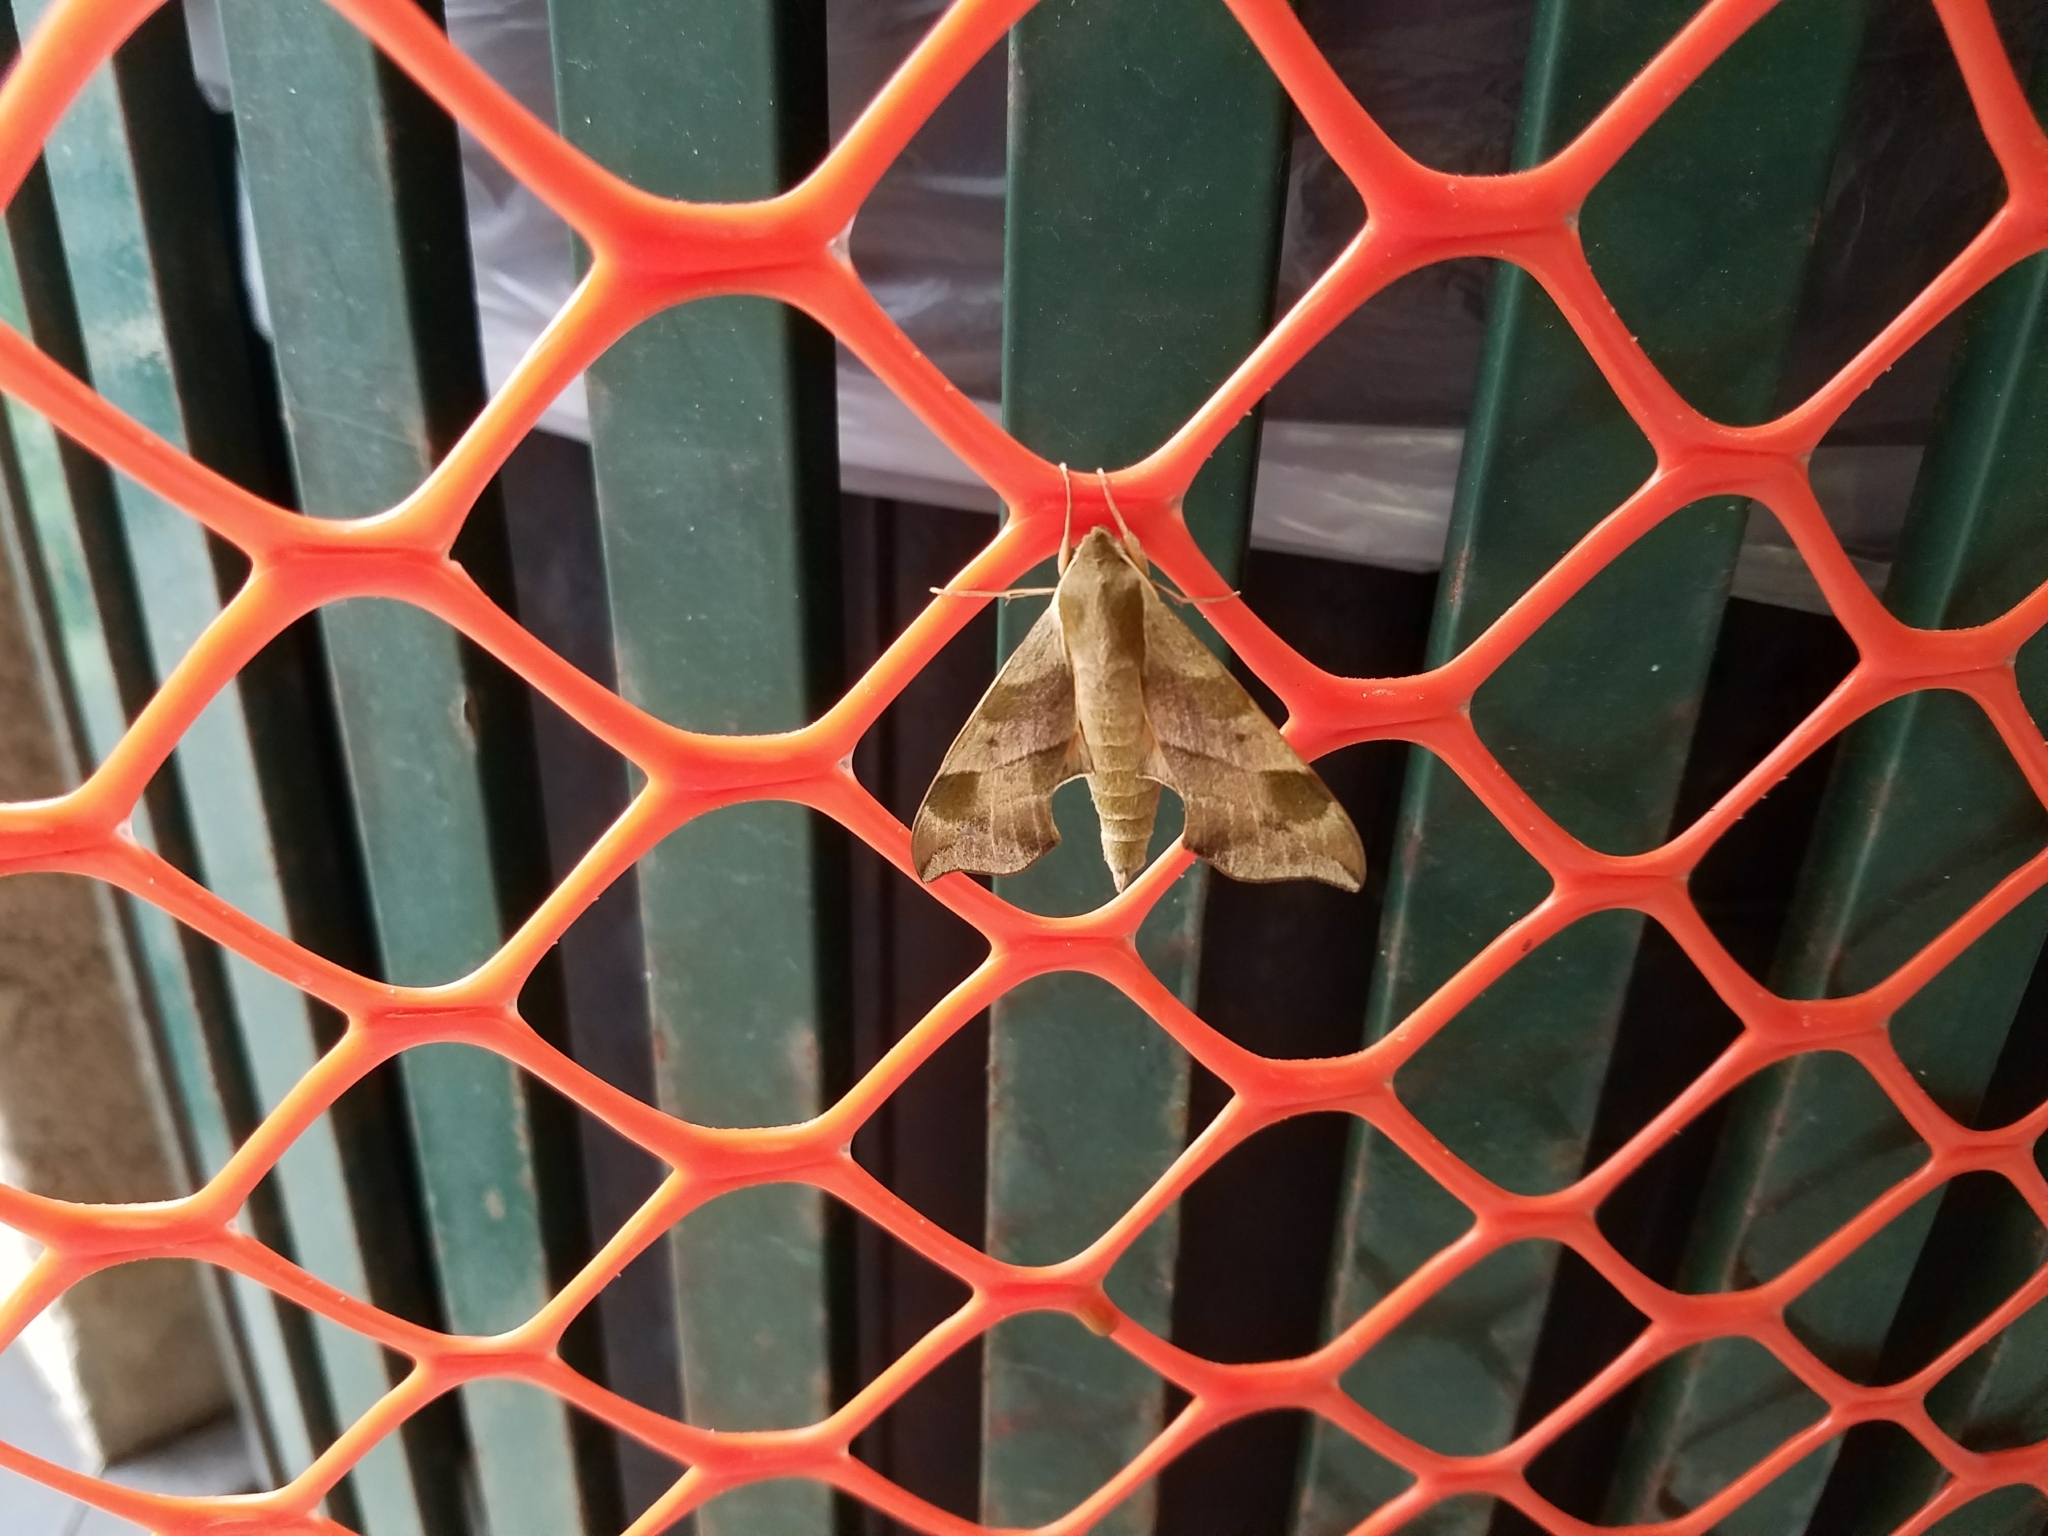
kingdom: Animalia
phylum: Arthropoda
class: Insecta
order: Lepidoptera
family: Sphingidae
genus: Darapsa
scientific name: Darapsa myron
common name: Hog sphinx
